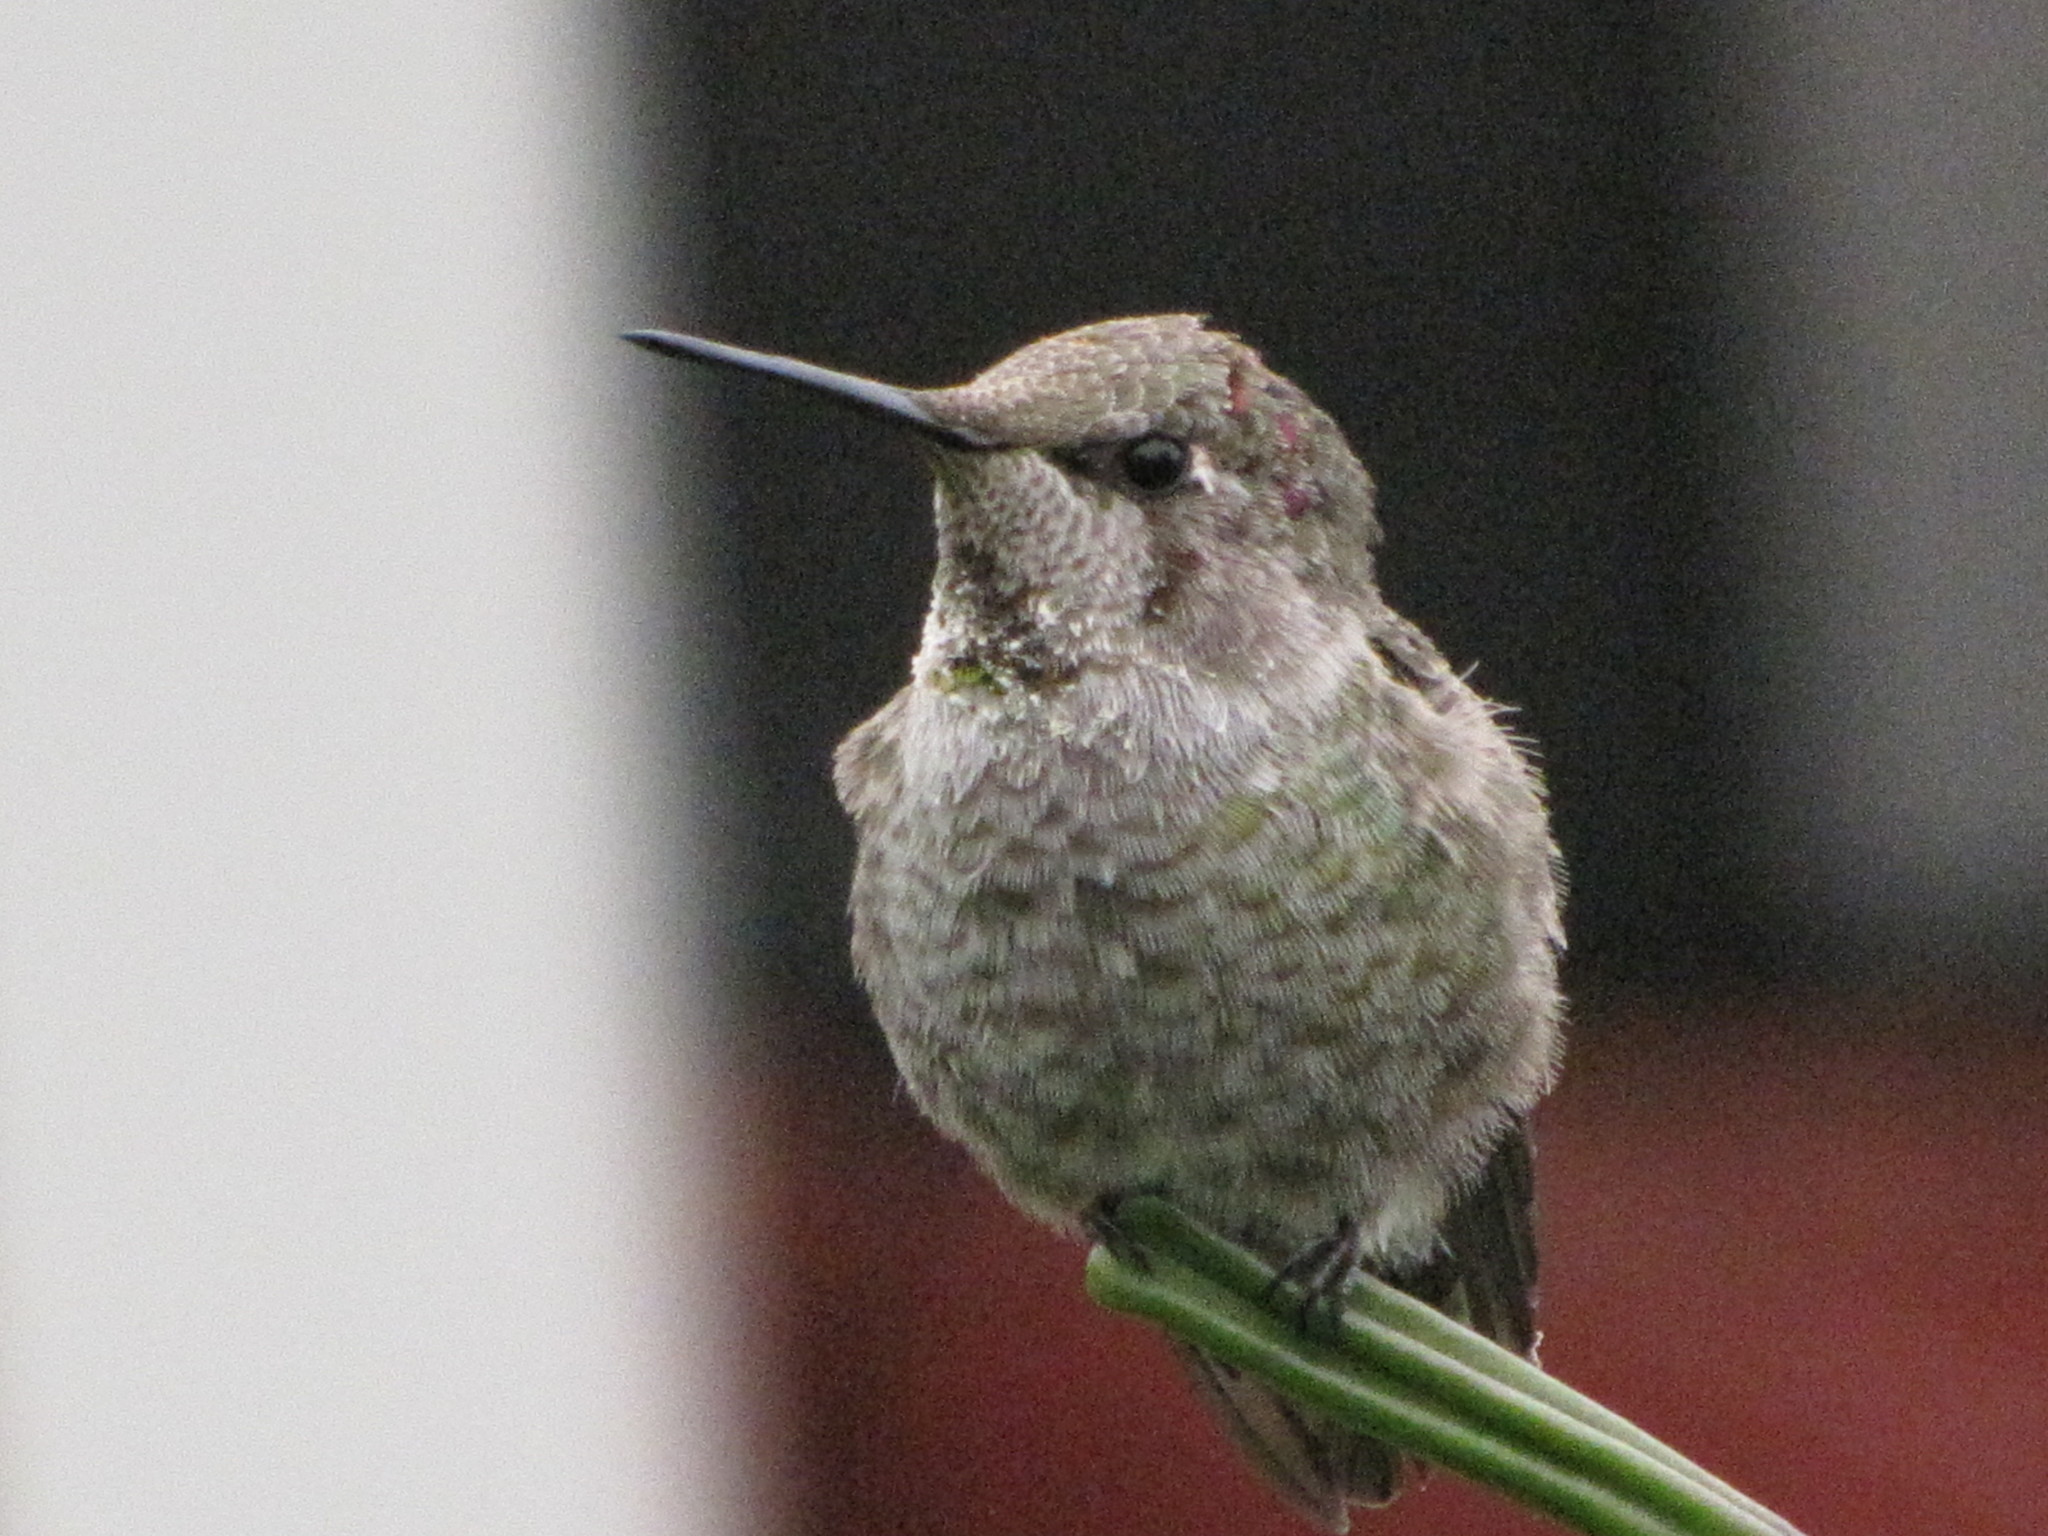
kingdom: Animalia
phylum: Chordata
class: Aves
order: Apodiformes
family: Trochilidae
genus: Calypte
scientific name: Calypte anna
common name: Anna's hummingbird
